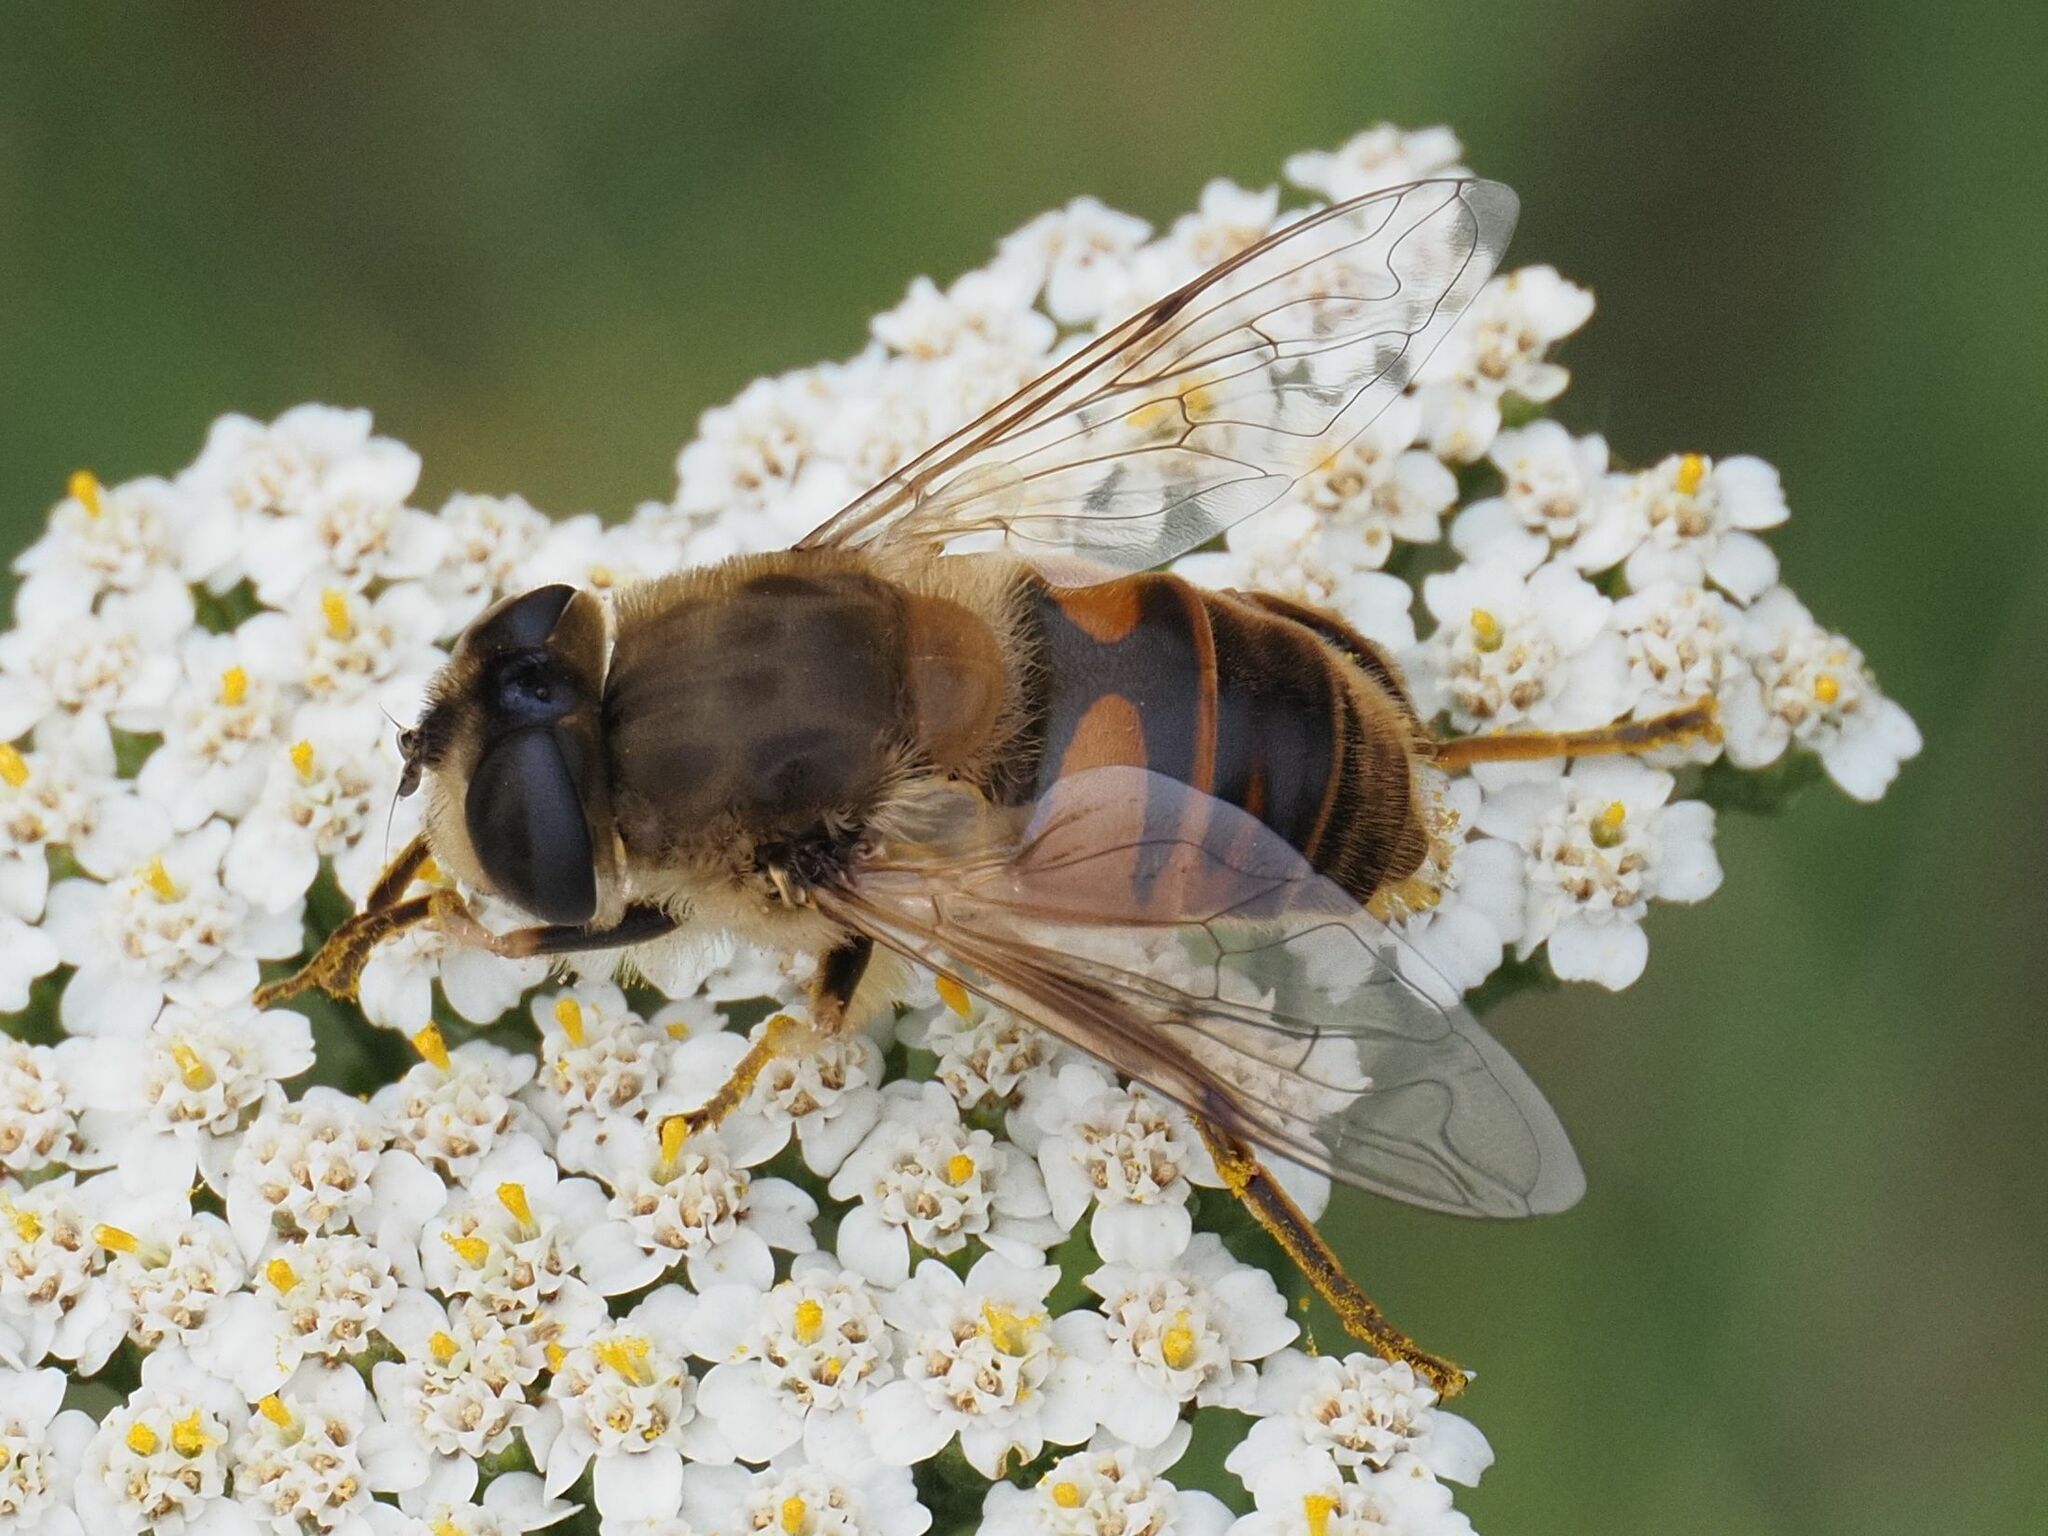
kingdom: Animalia
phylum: Arthropoda
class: Insecta
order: Diptera
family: Syrphidae
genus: Eristalis
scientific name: Eristalis tenax
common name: Drone fly
